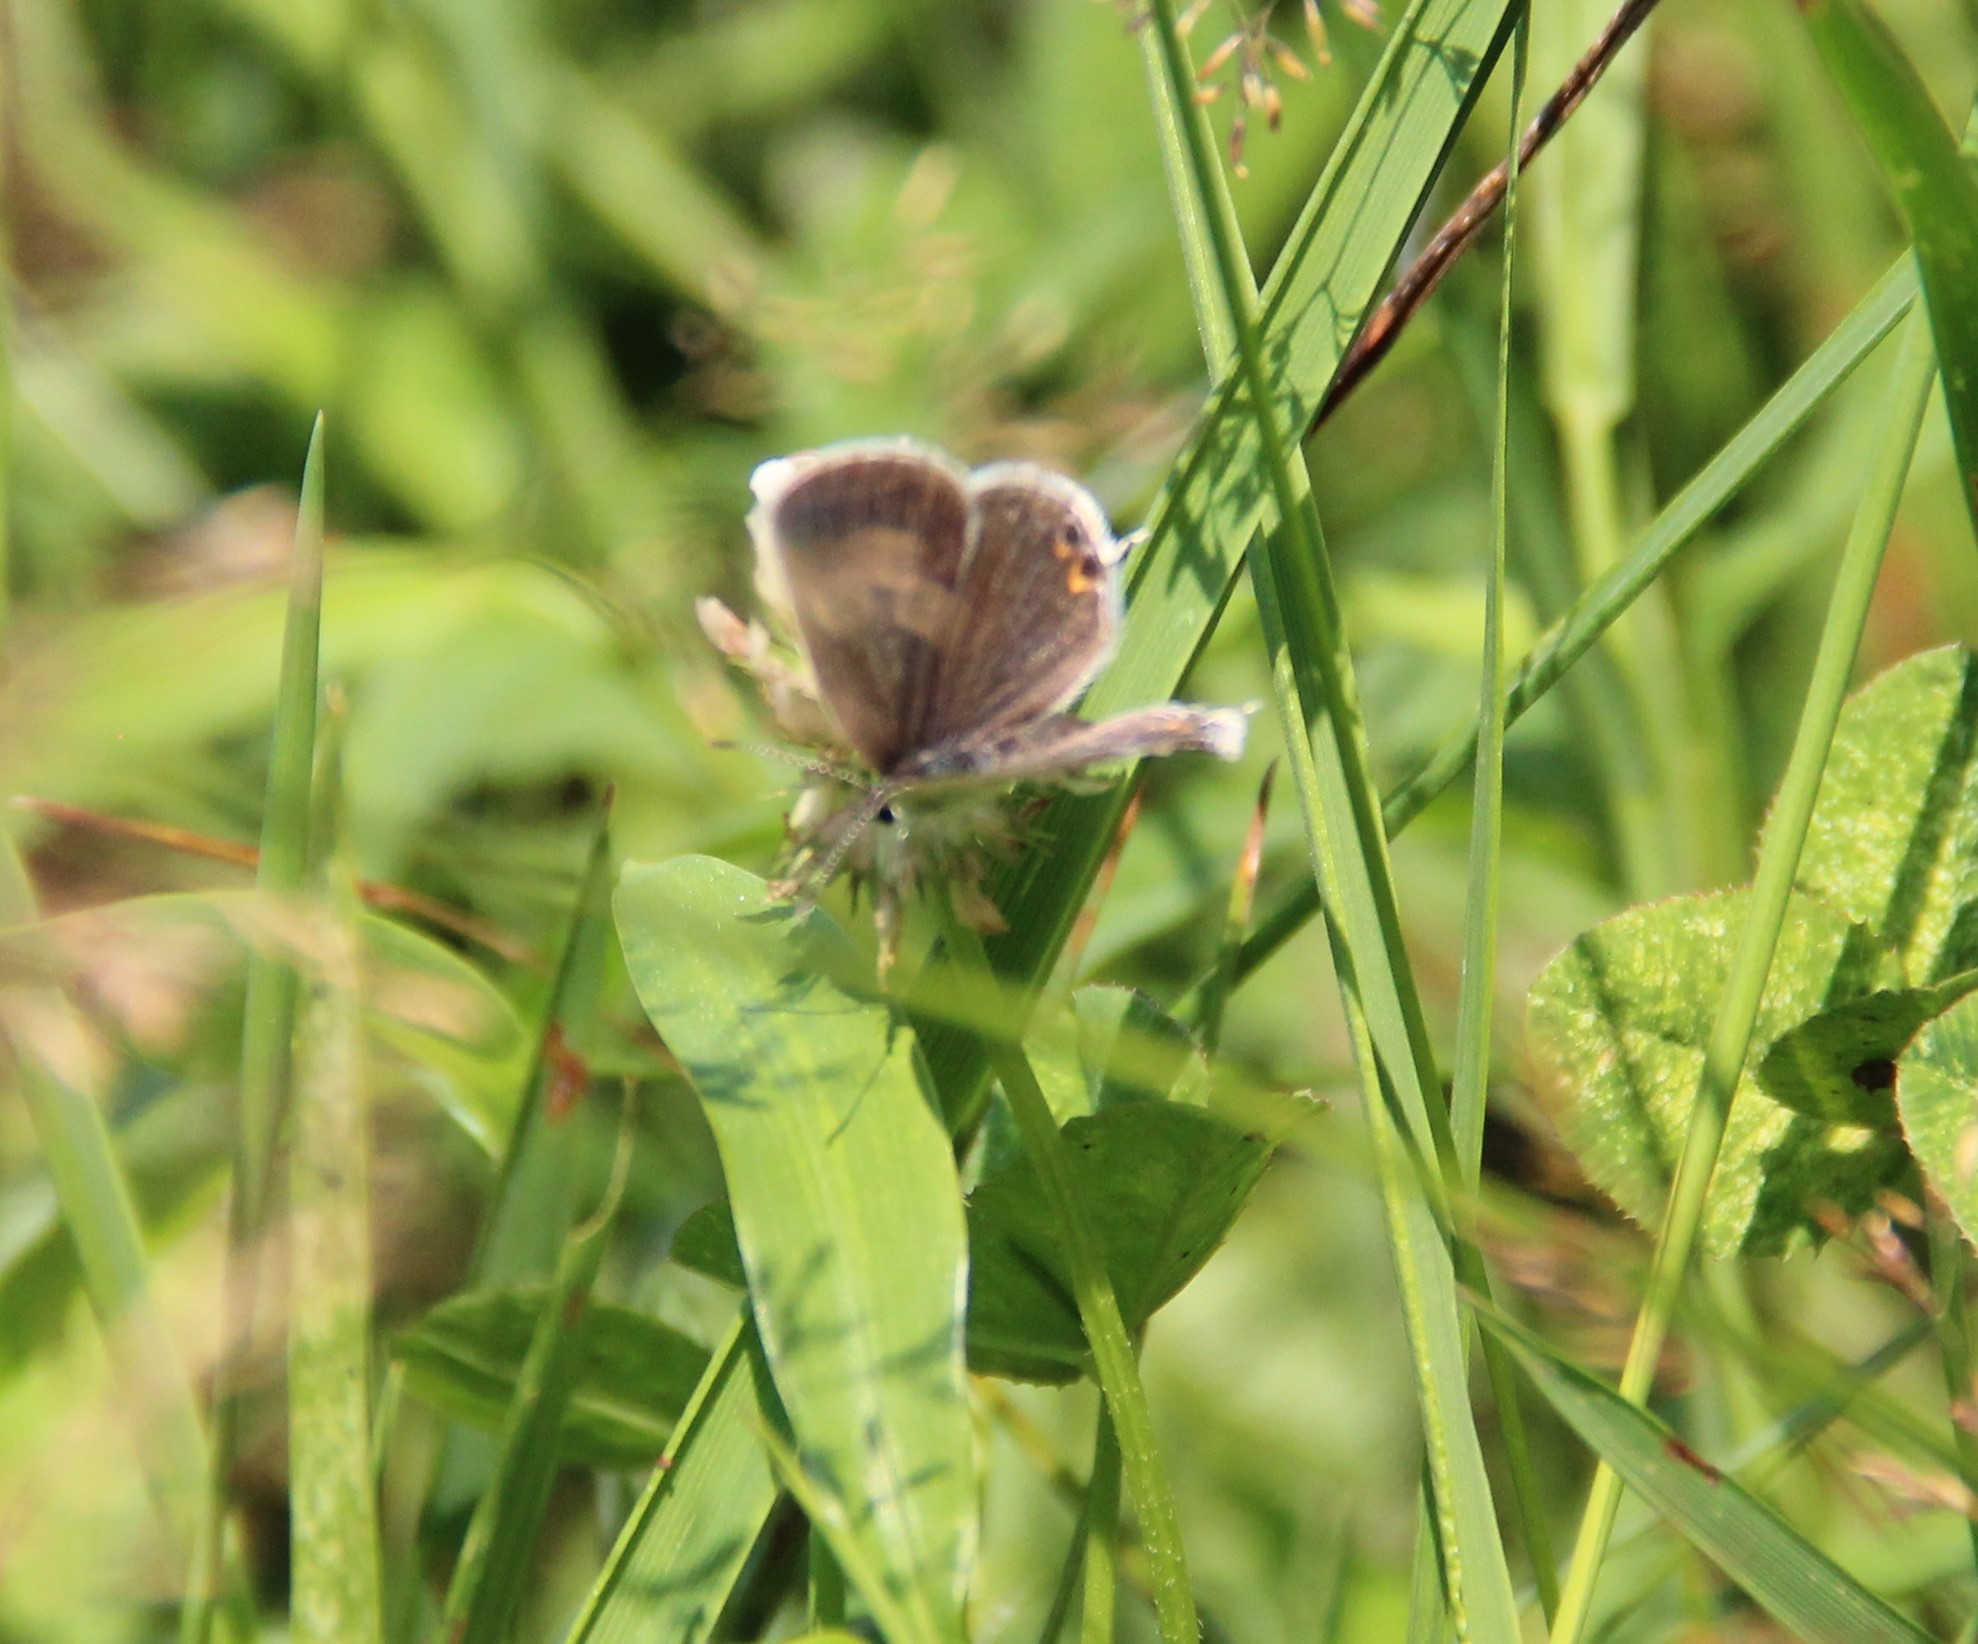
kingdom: Animalia
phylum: Arthropoda
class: Insecta
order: Lepidoptera
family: Lycaenidae
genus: Elkalyce
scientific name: Elkalyce comyntas
